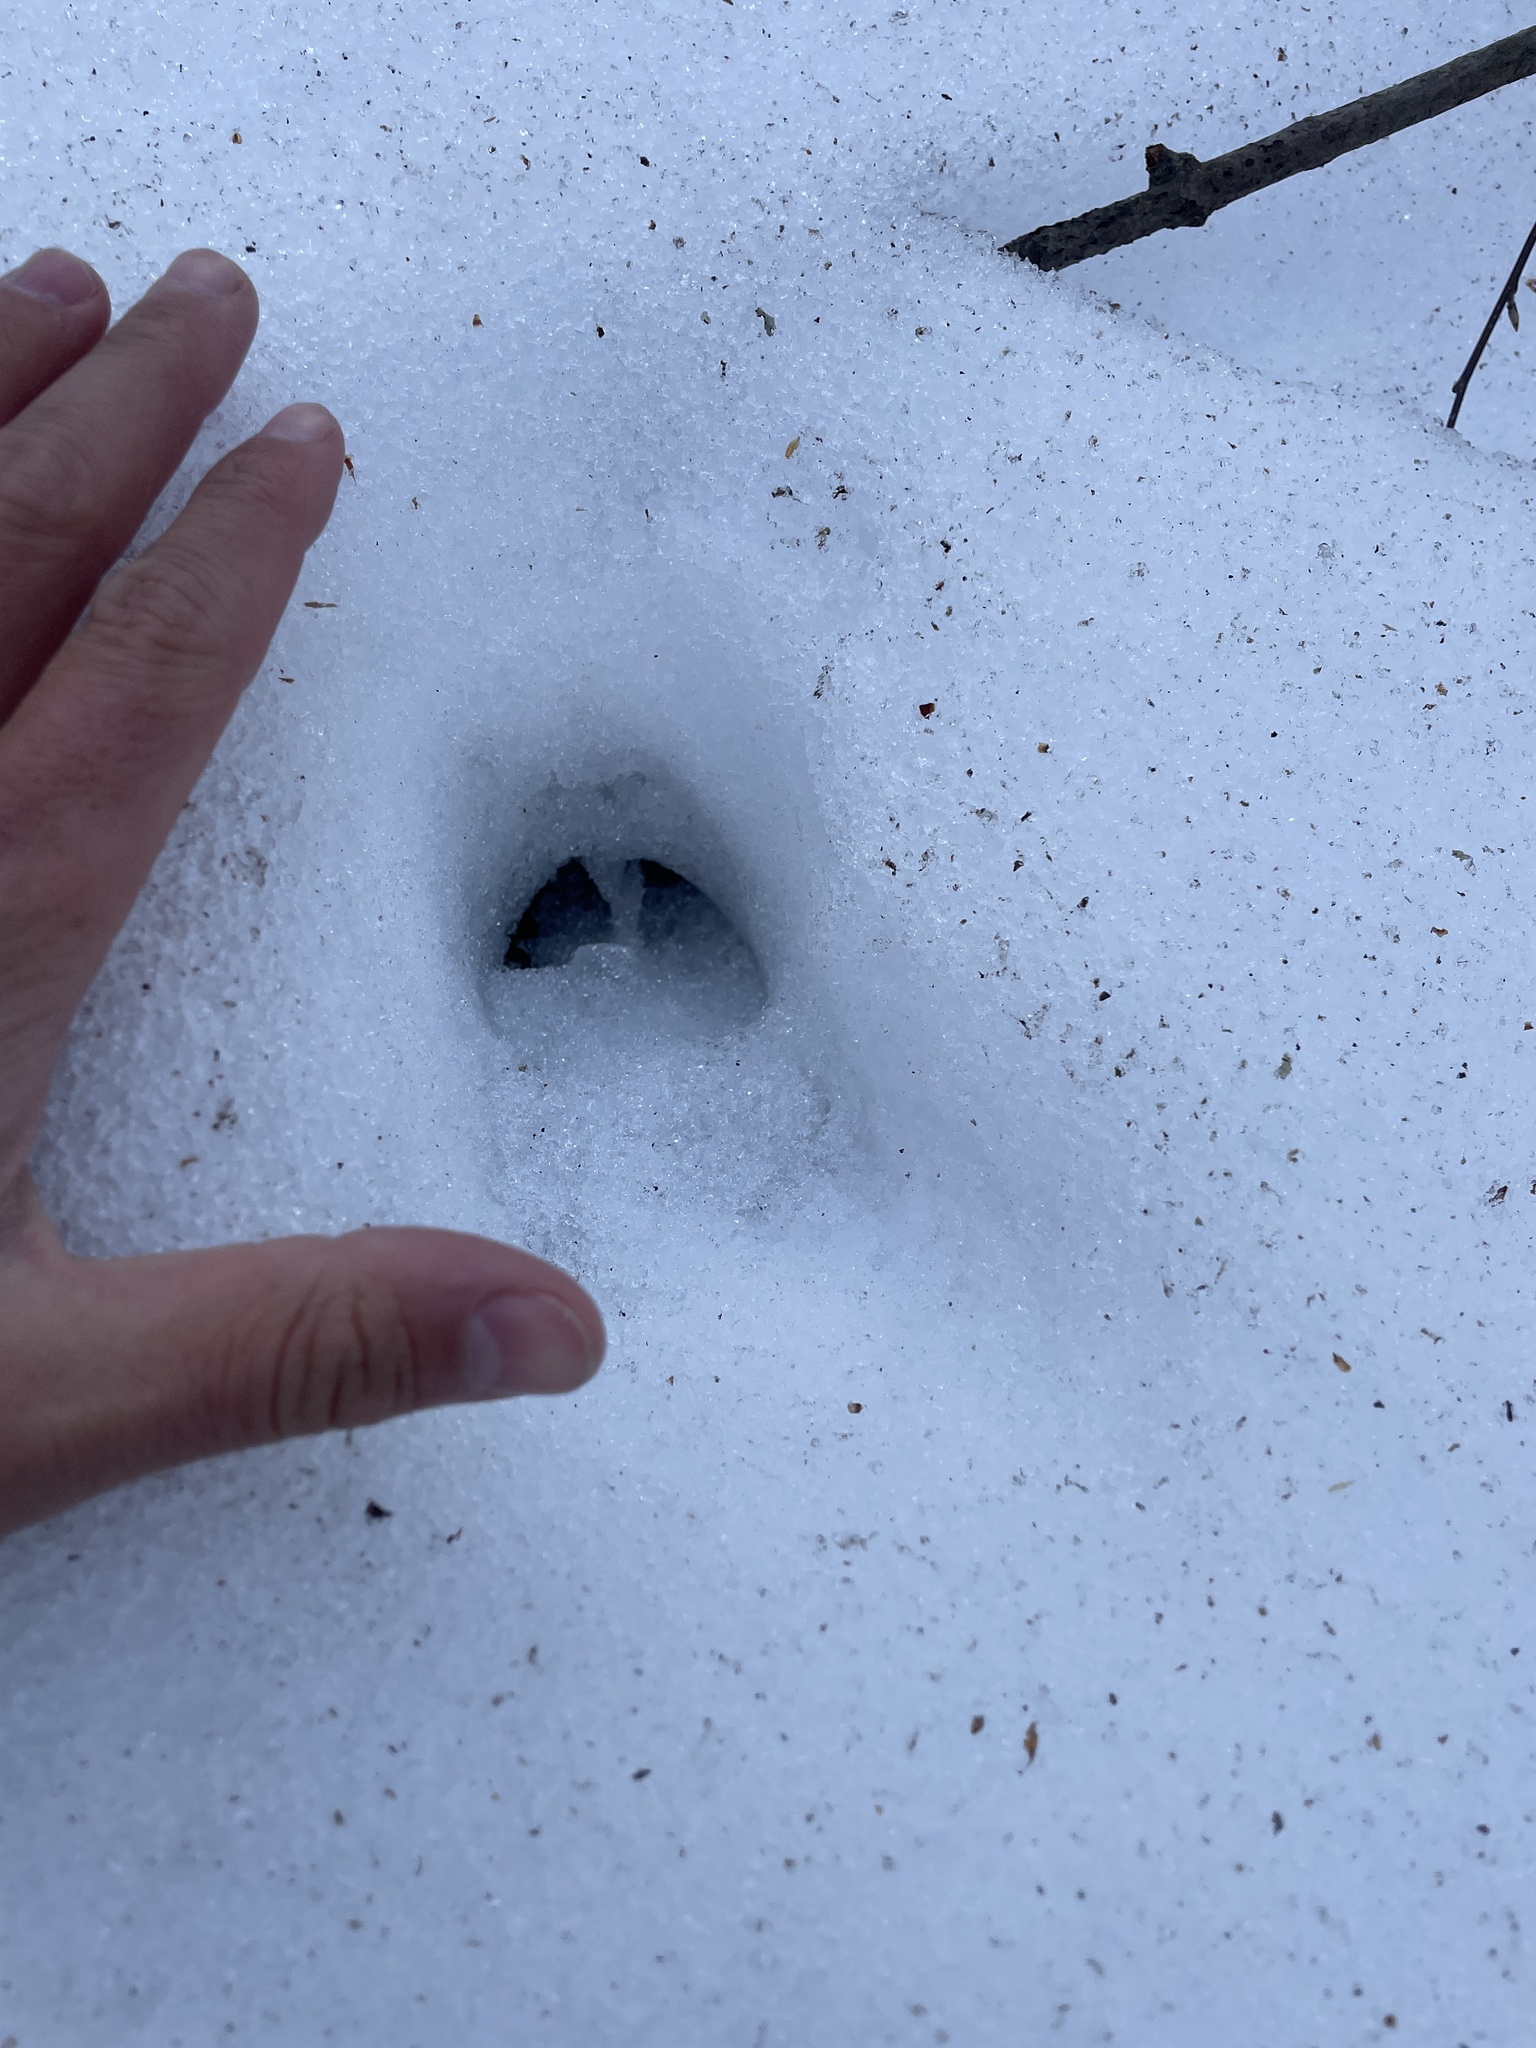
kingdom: Animalia
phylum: Chordata
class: Mammalia
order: Artiodactyla
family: Cervidae
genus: Odocoileus
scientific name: Odocoileus virginianus
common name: White-tailed deer
